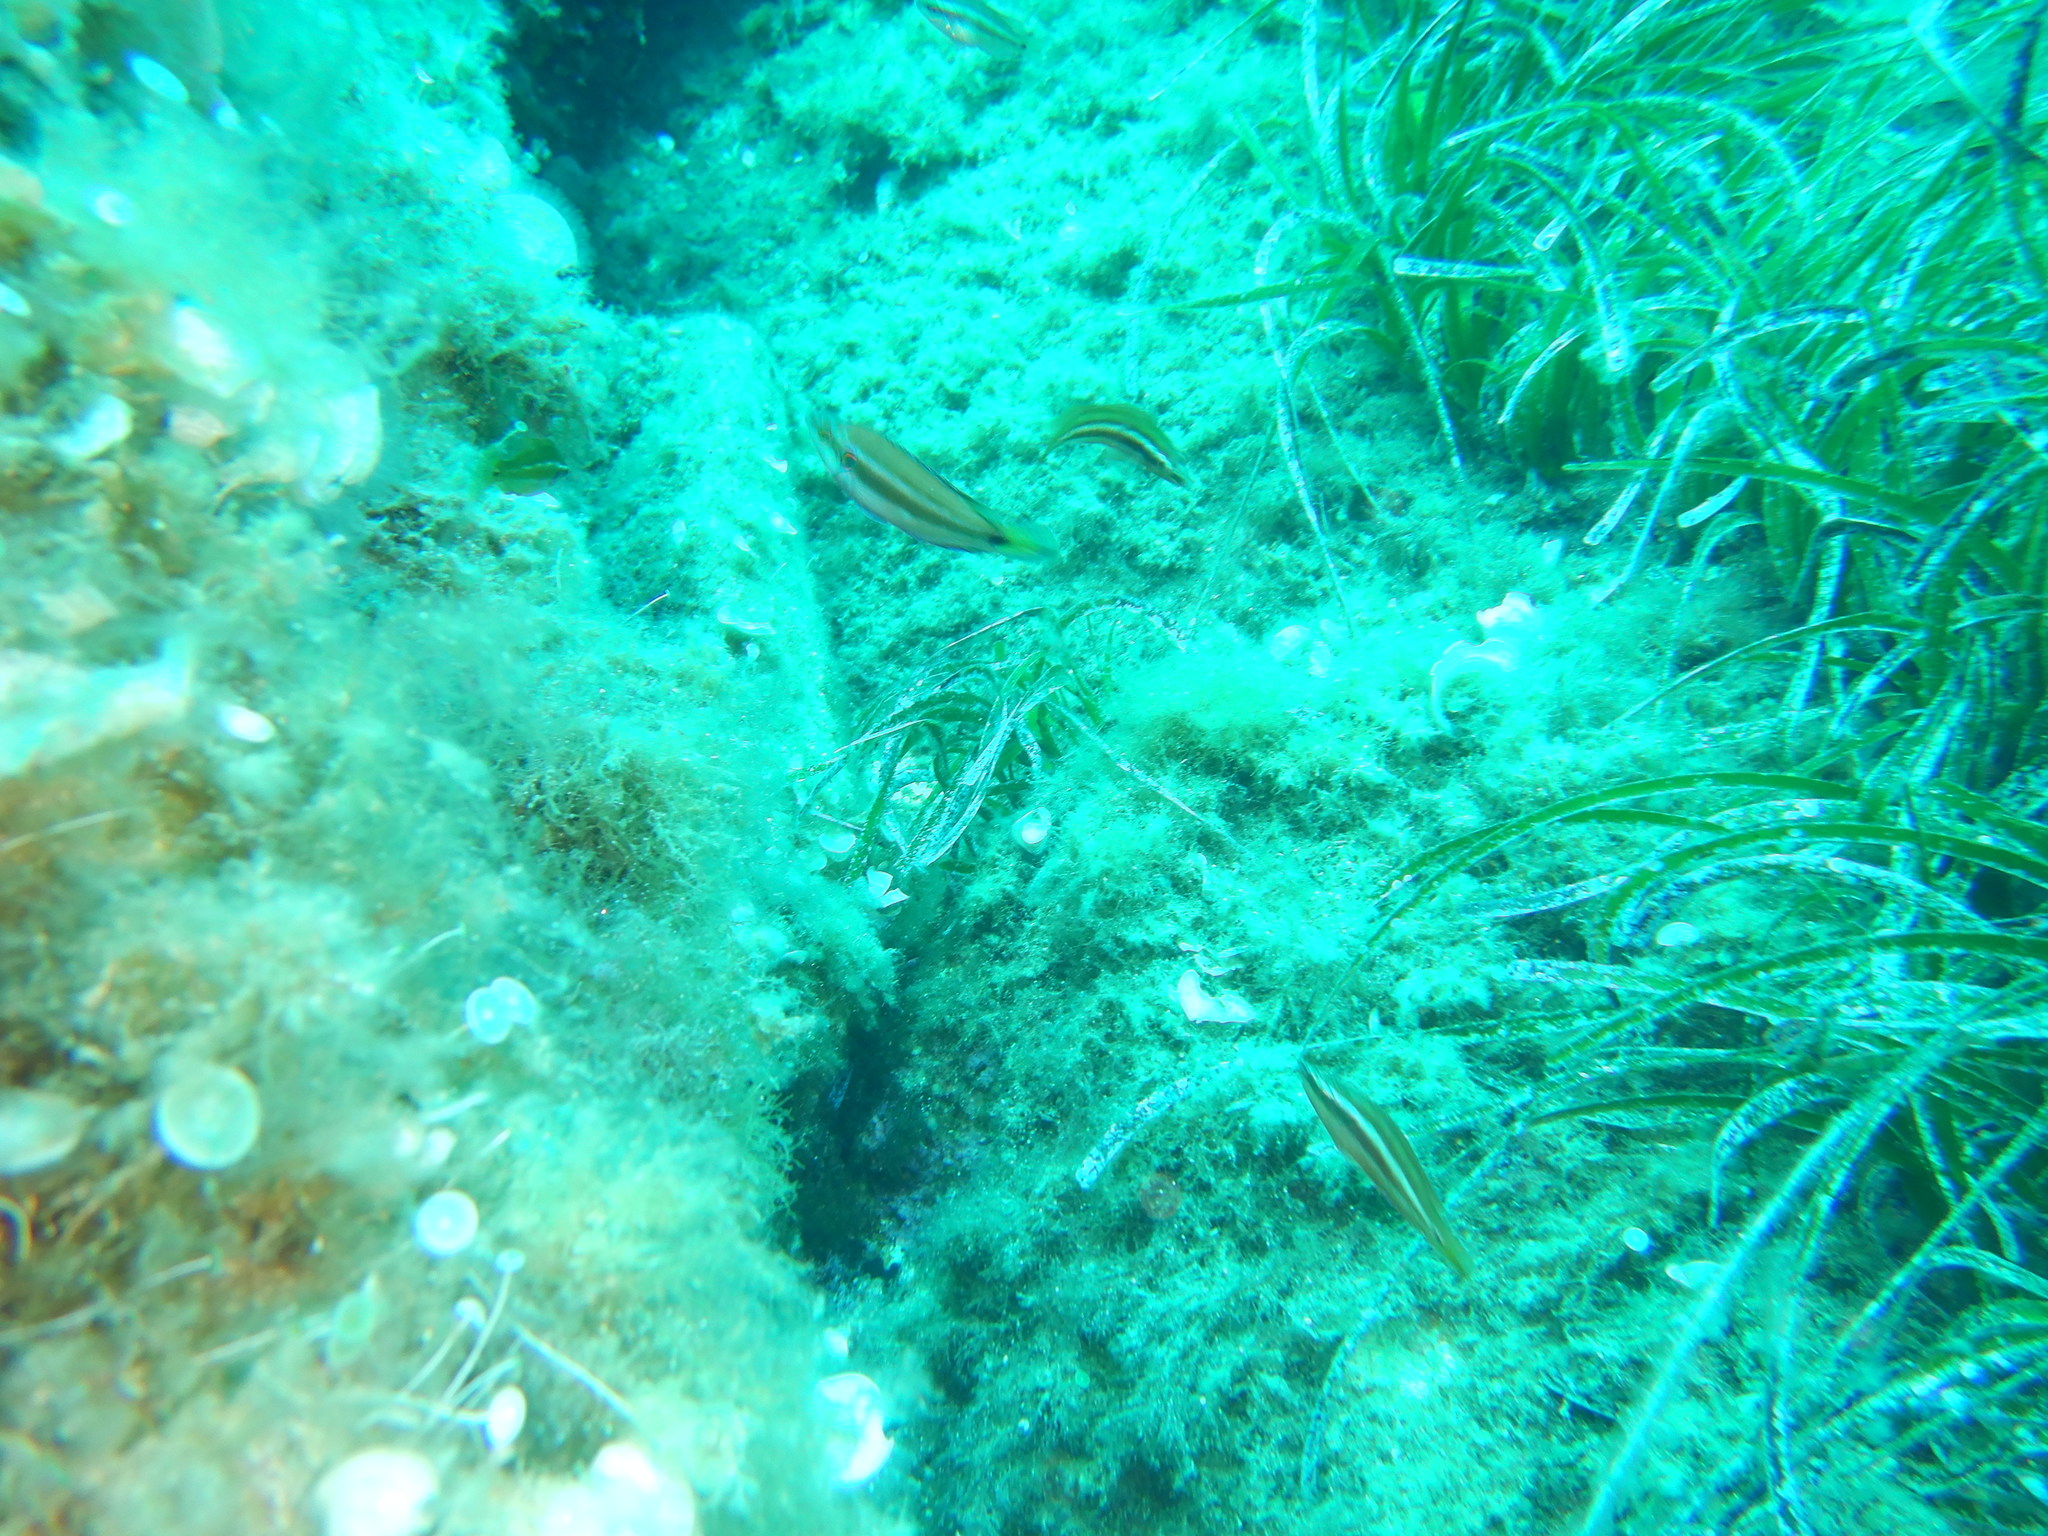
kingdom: Animalia
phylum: Chordata
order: Perciformes
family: Labridae
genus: Symphodus
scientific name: Symphodus ocellatus
